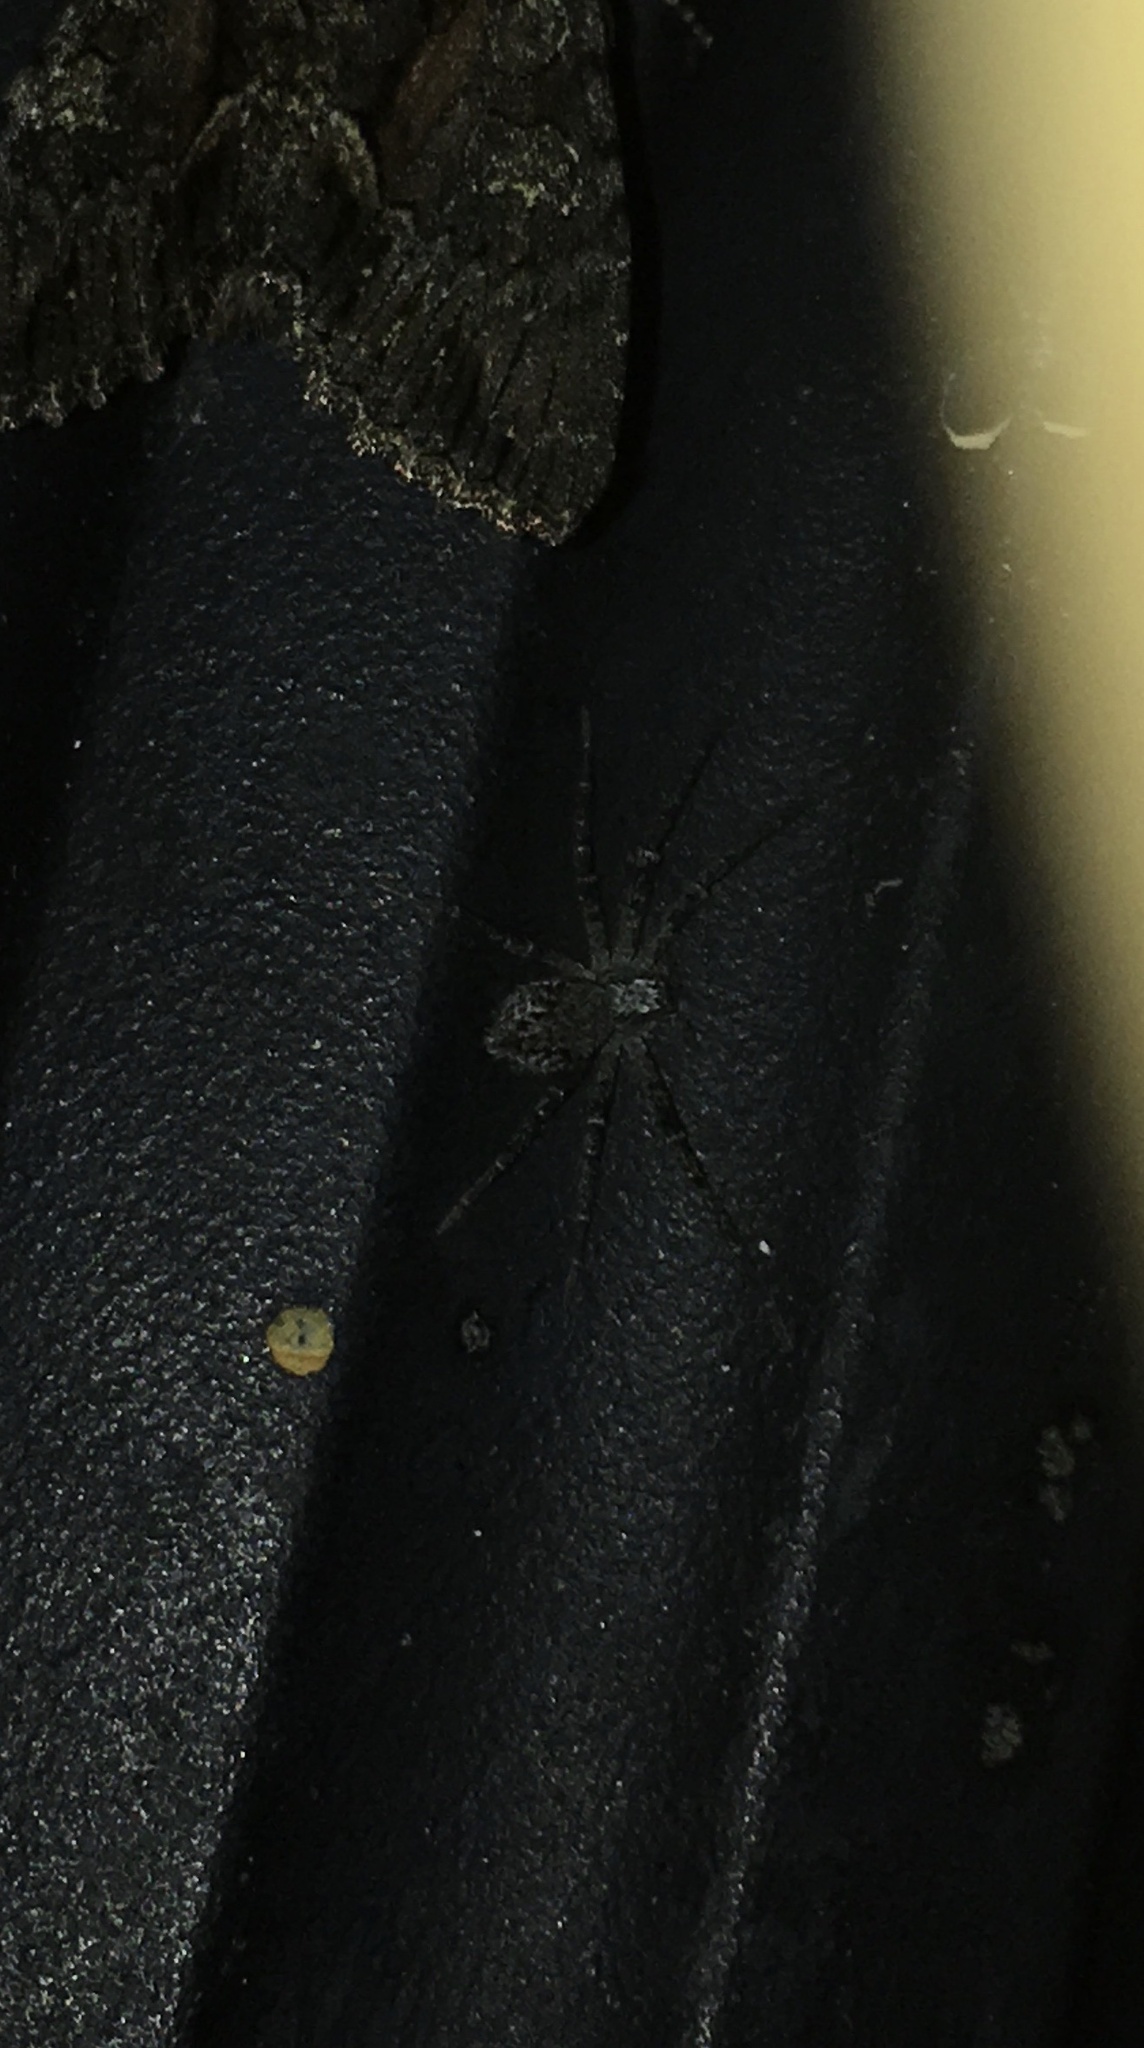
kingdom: Animalia
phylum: Arthropoda
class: Arachnida
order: Araneae
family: Philodromidae
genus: Apollophanes
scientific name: Apollophanes margareta
